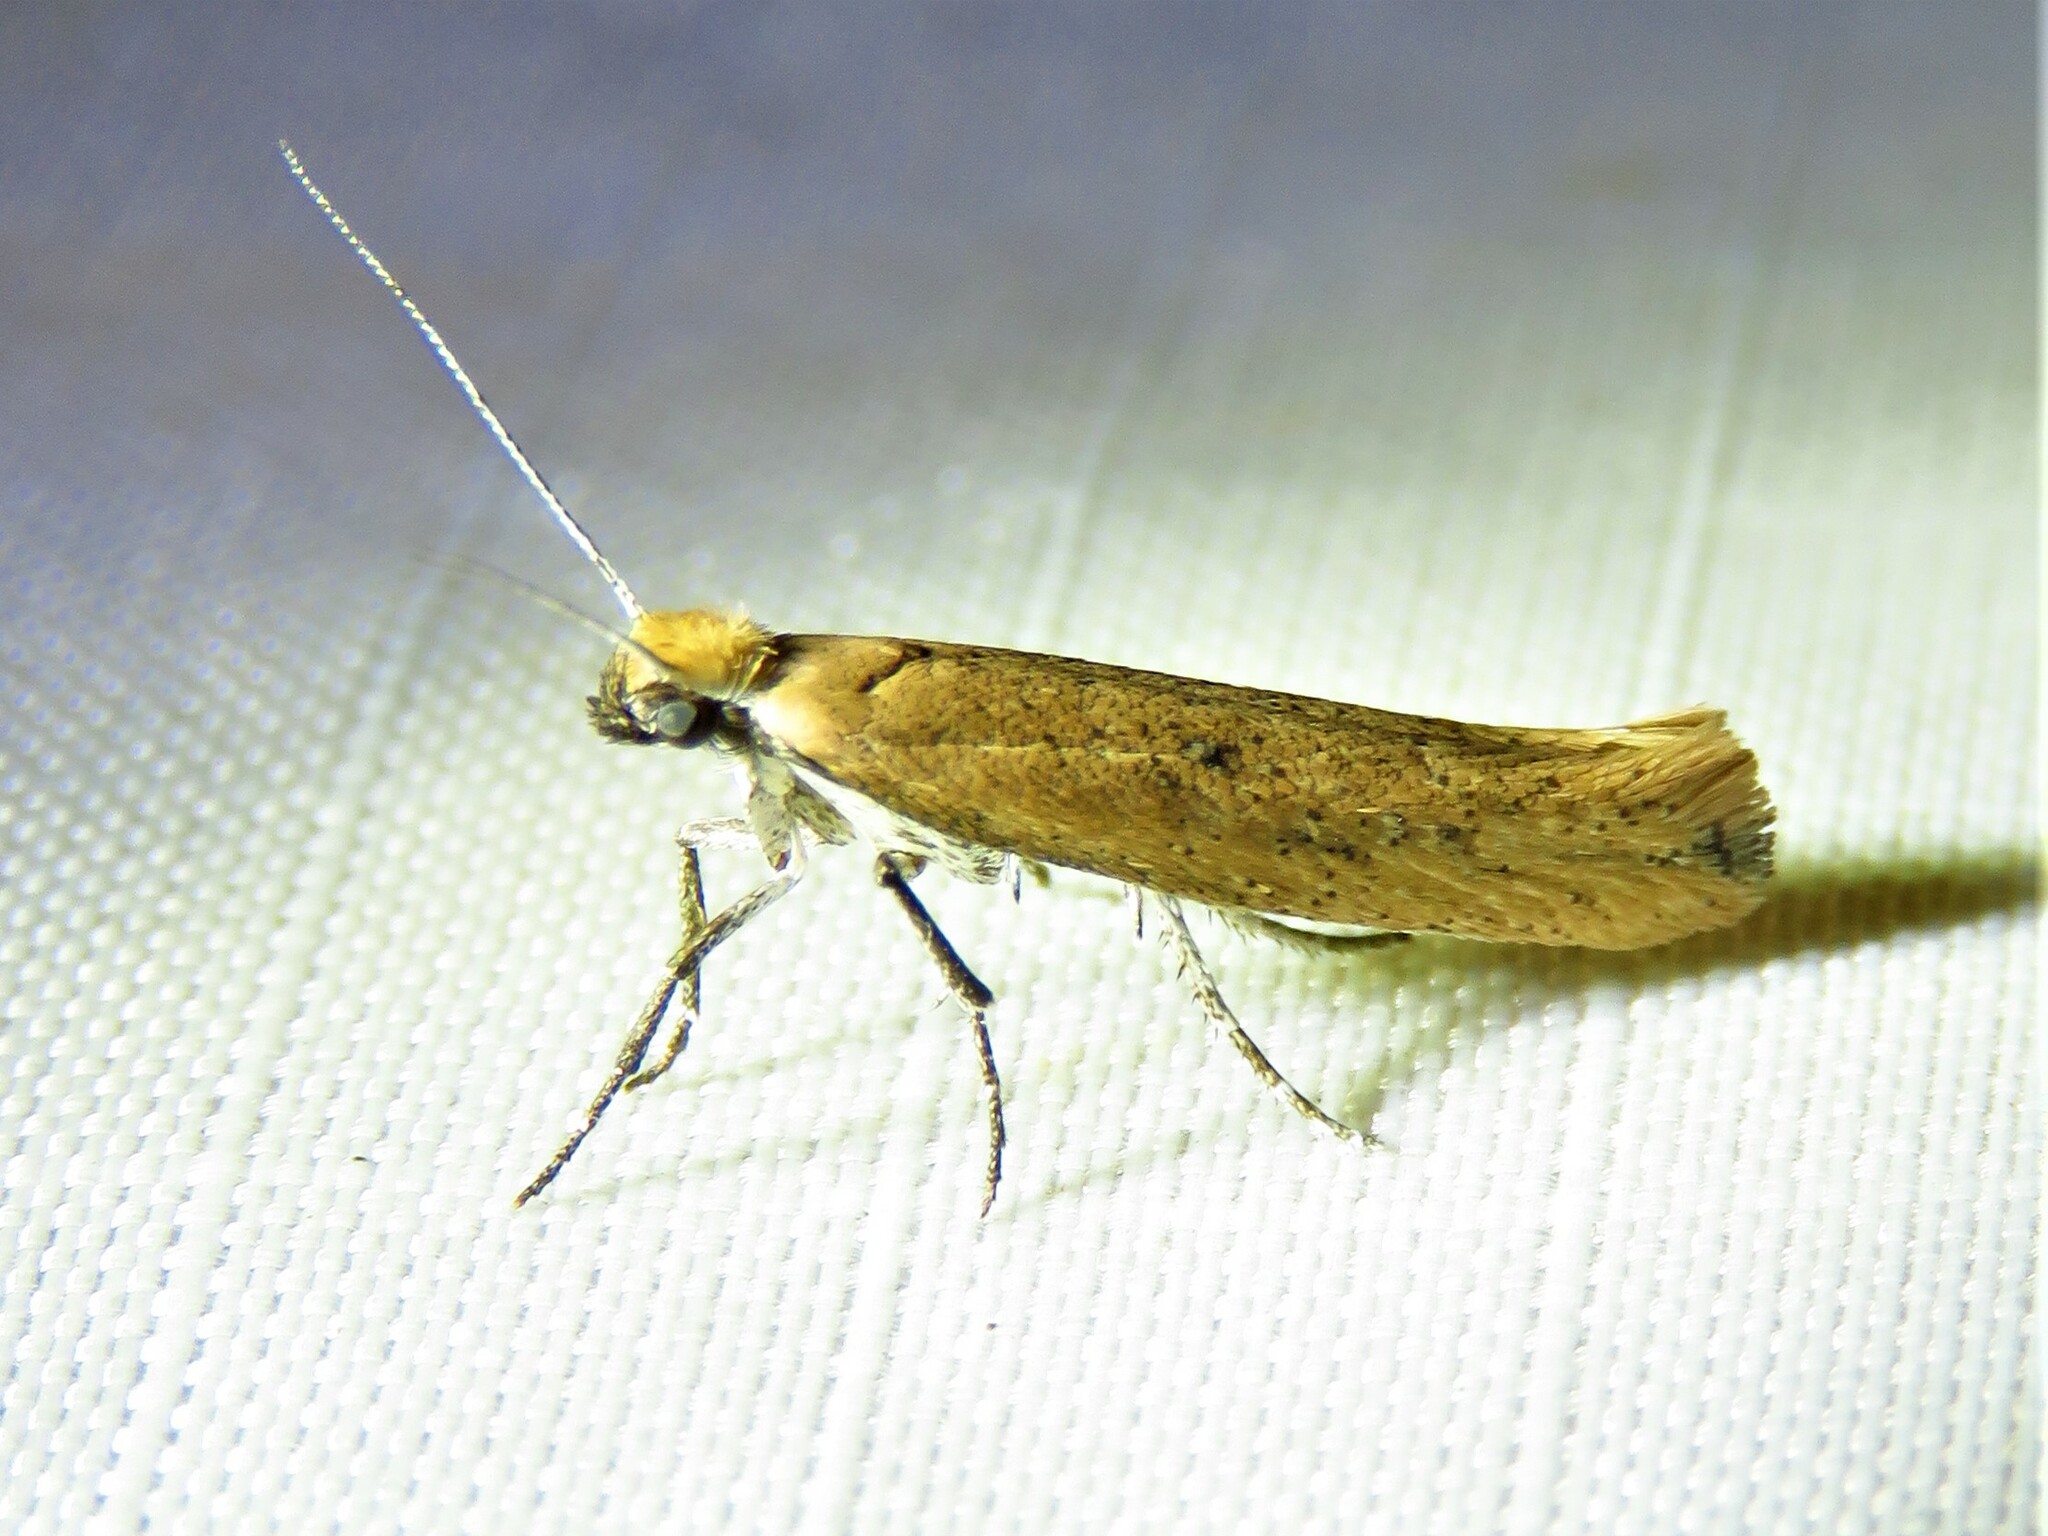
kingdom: Animalia
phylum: Arthropoda
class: Insecta
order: Lepidoptera
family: Ypsolophidae
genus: Ypsolopha
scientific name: Ypsolopha
